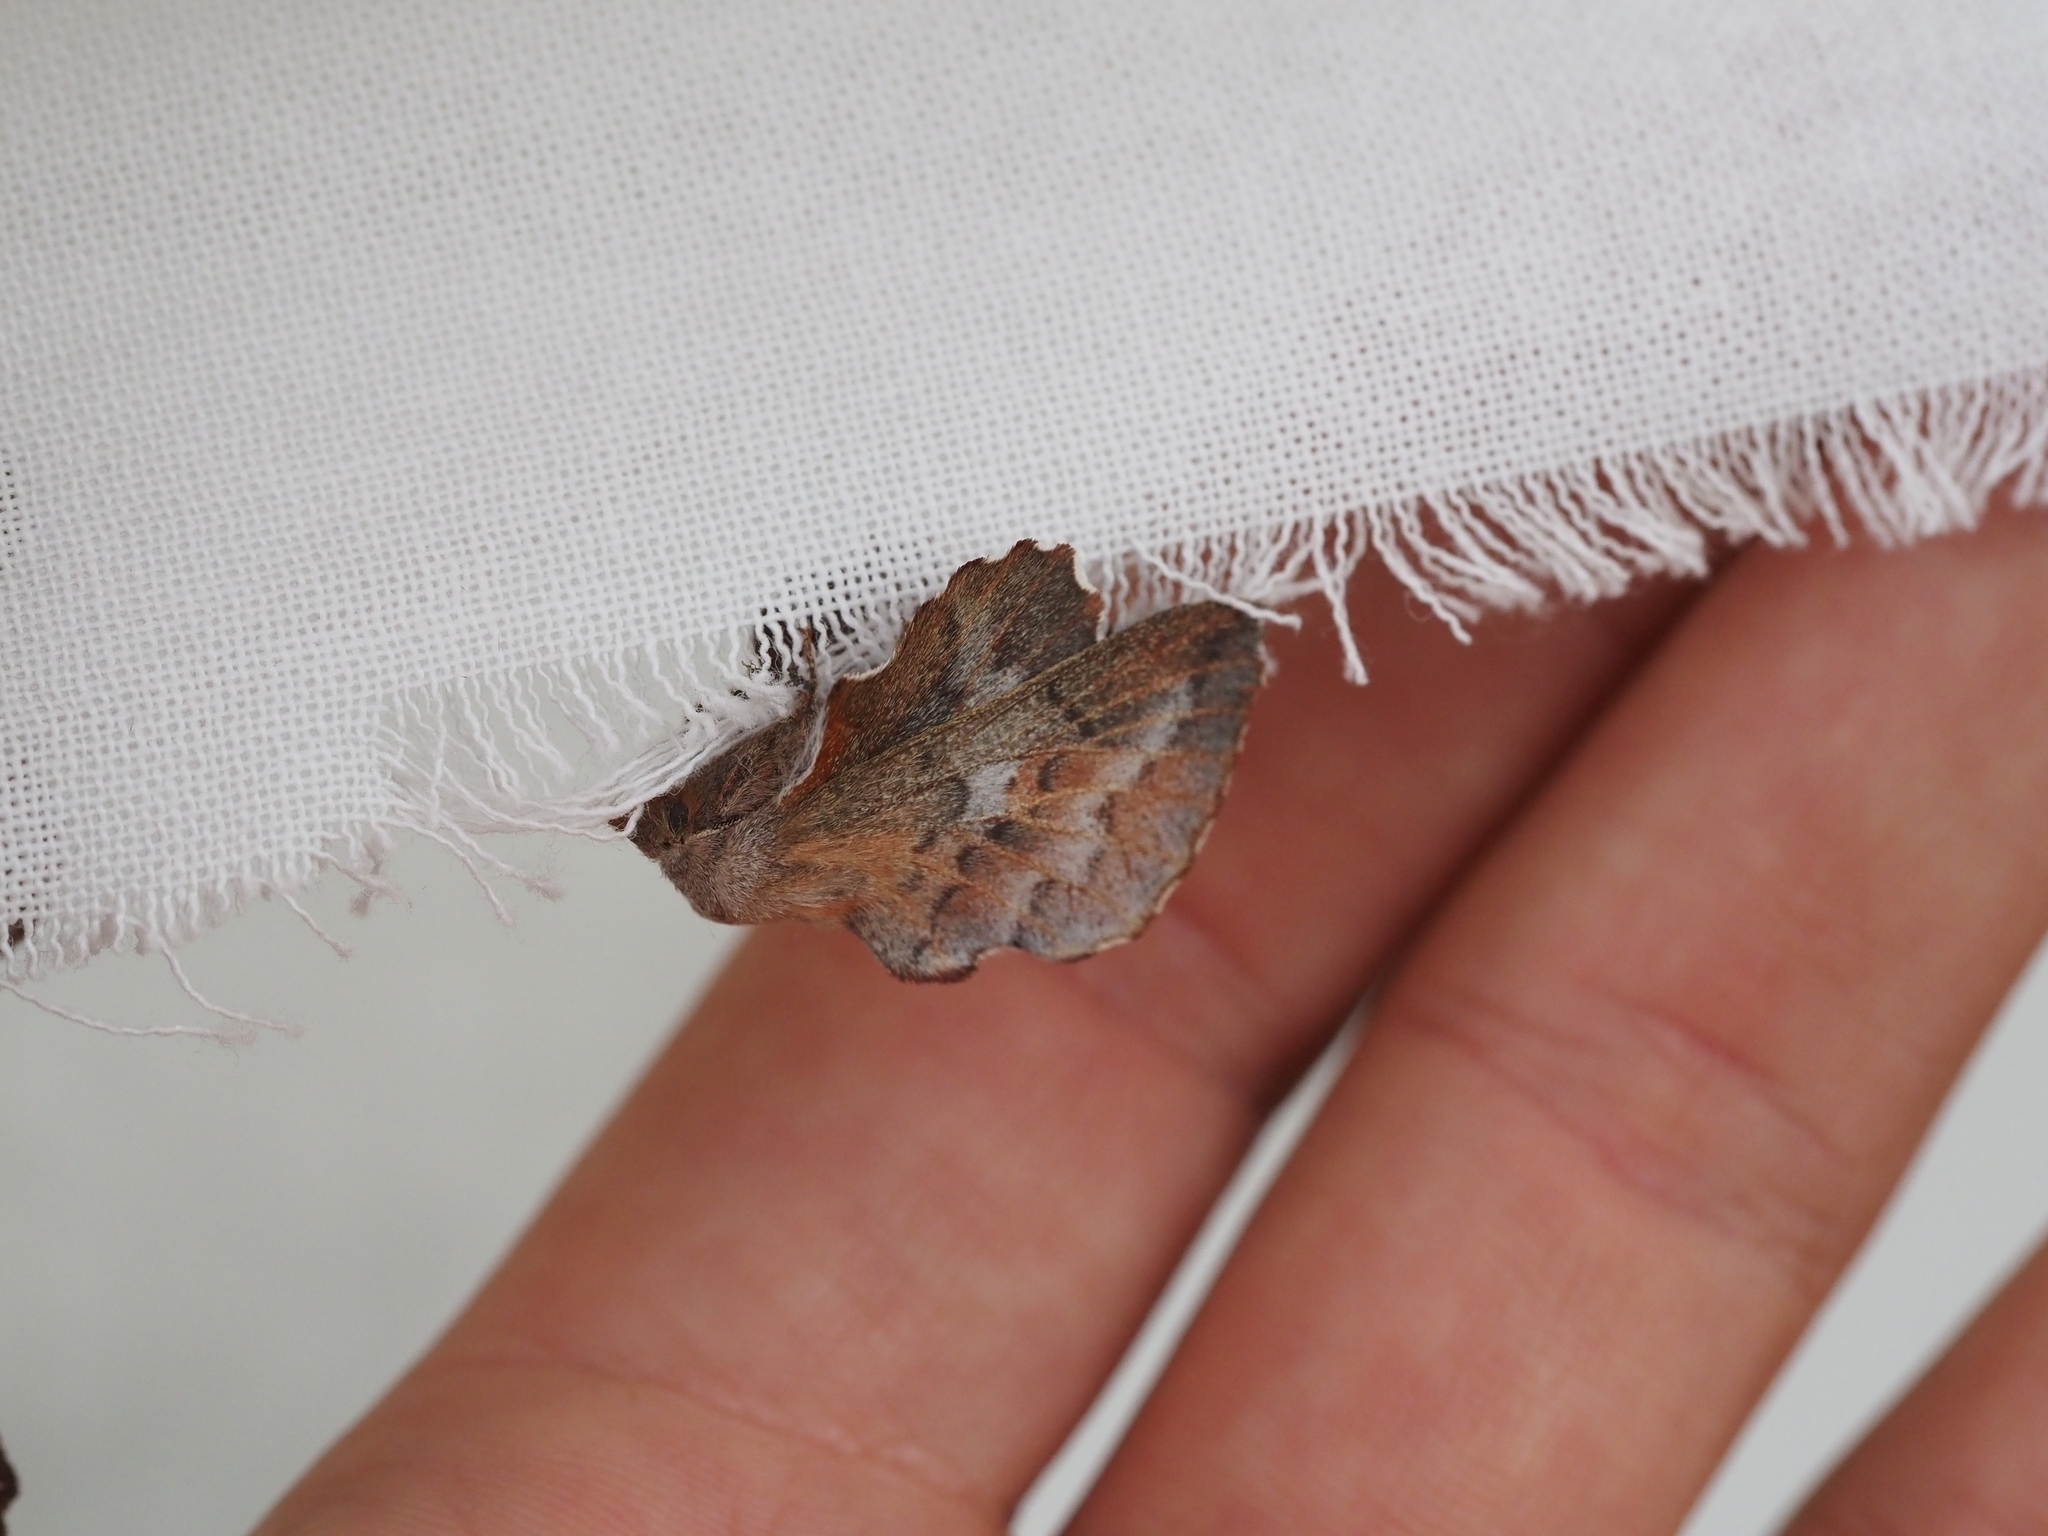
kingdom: Animalia
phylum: Arthropoda
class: Insecta
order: Lepidoptera
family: Lasiocampidae
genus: Phyllodesma
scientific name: Phyllodesma americana
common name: American lappet moth
